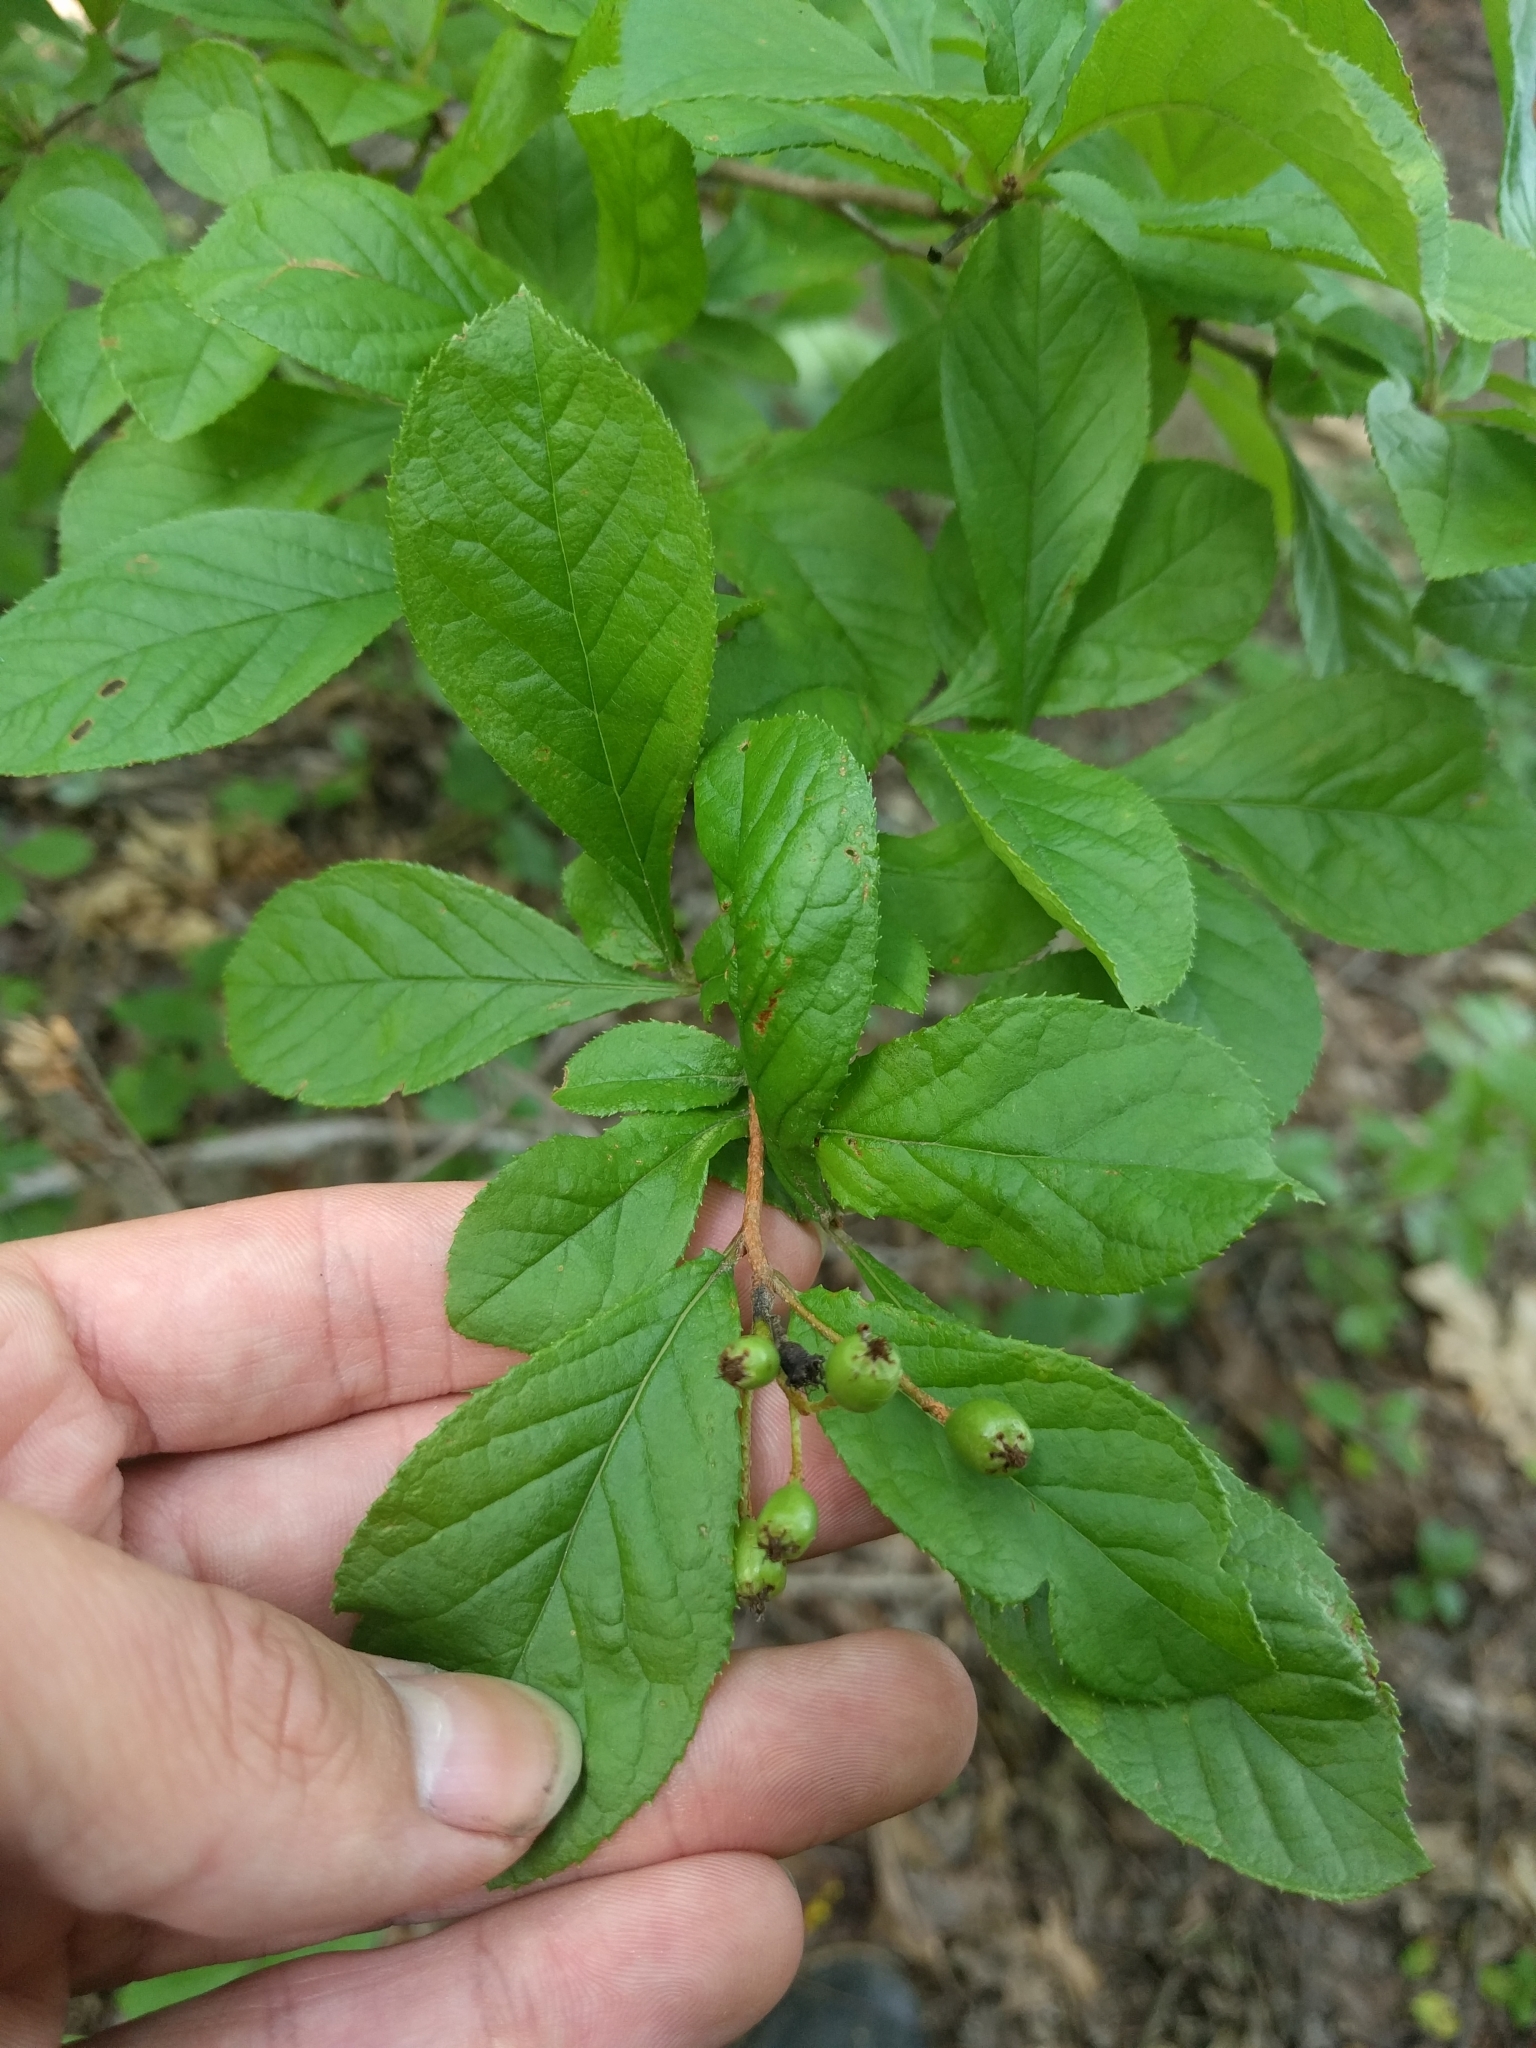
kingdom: Plantae
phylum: Tracheophyta
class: Magnoliopsida
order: Rosales
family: Rosaceae
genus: Pourthiaea
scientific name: Pourthiaea villosa
